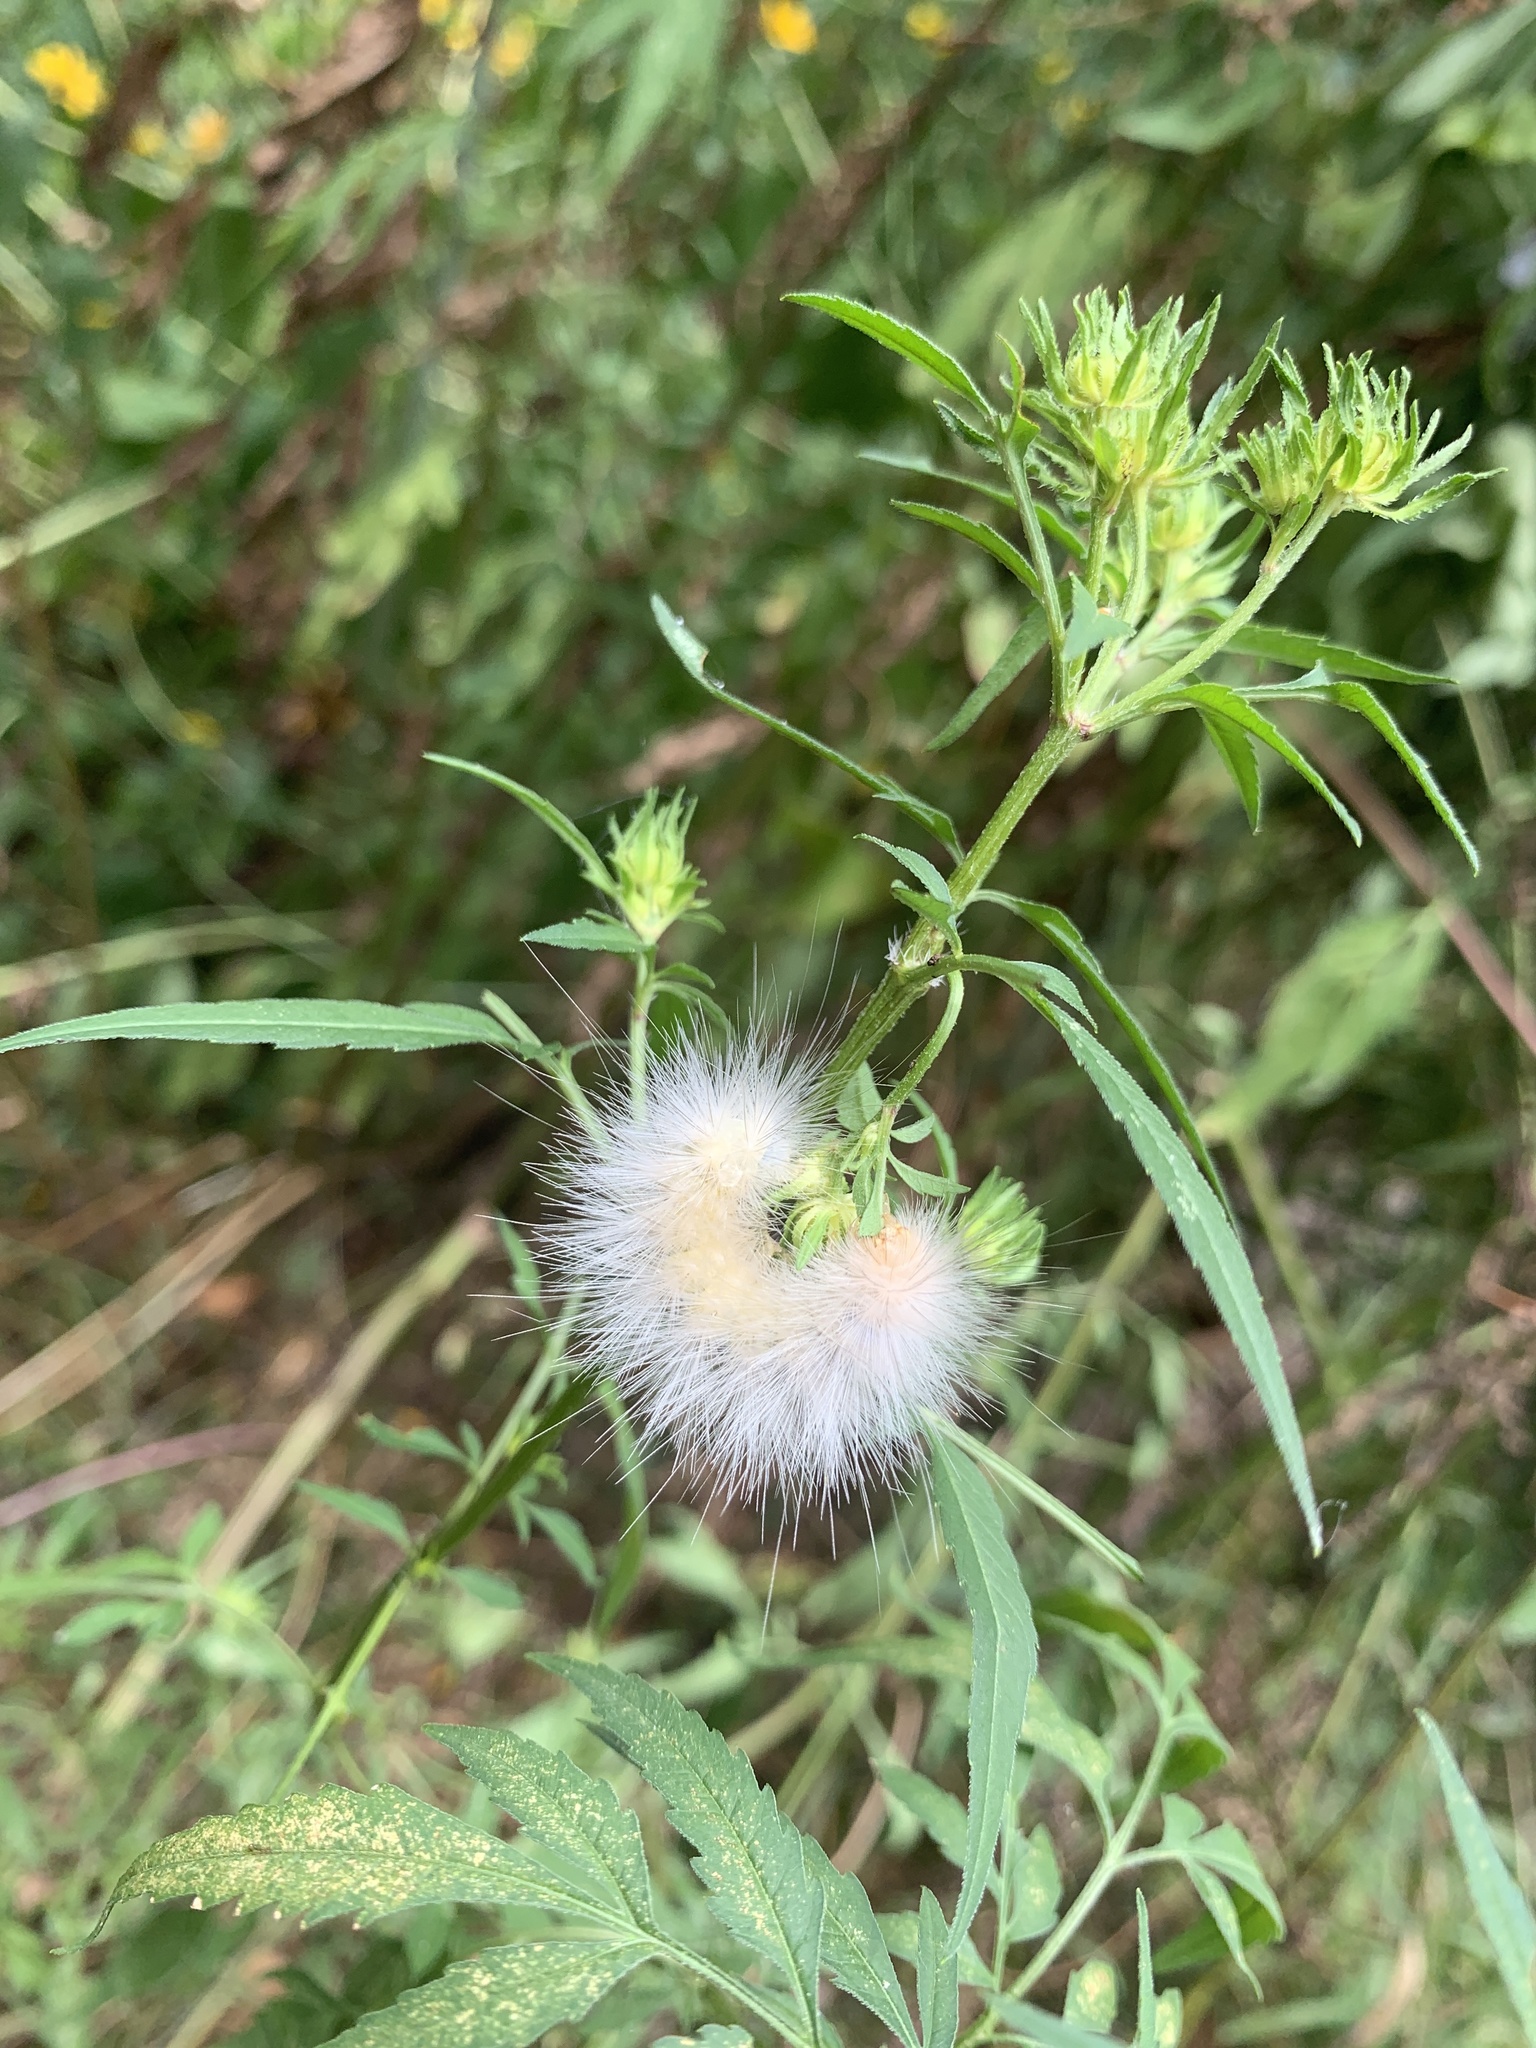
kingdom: Plantae
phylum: Tracheophyta
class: Magnoliopsida
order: Asterales
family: Asteraceae
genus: Bidens
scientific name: Bidens polylepis
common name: Awnless beggarticks
